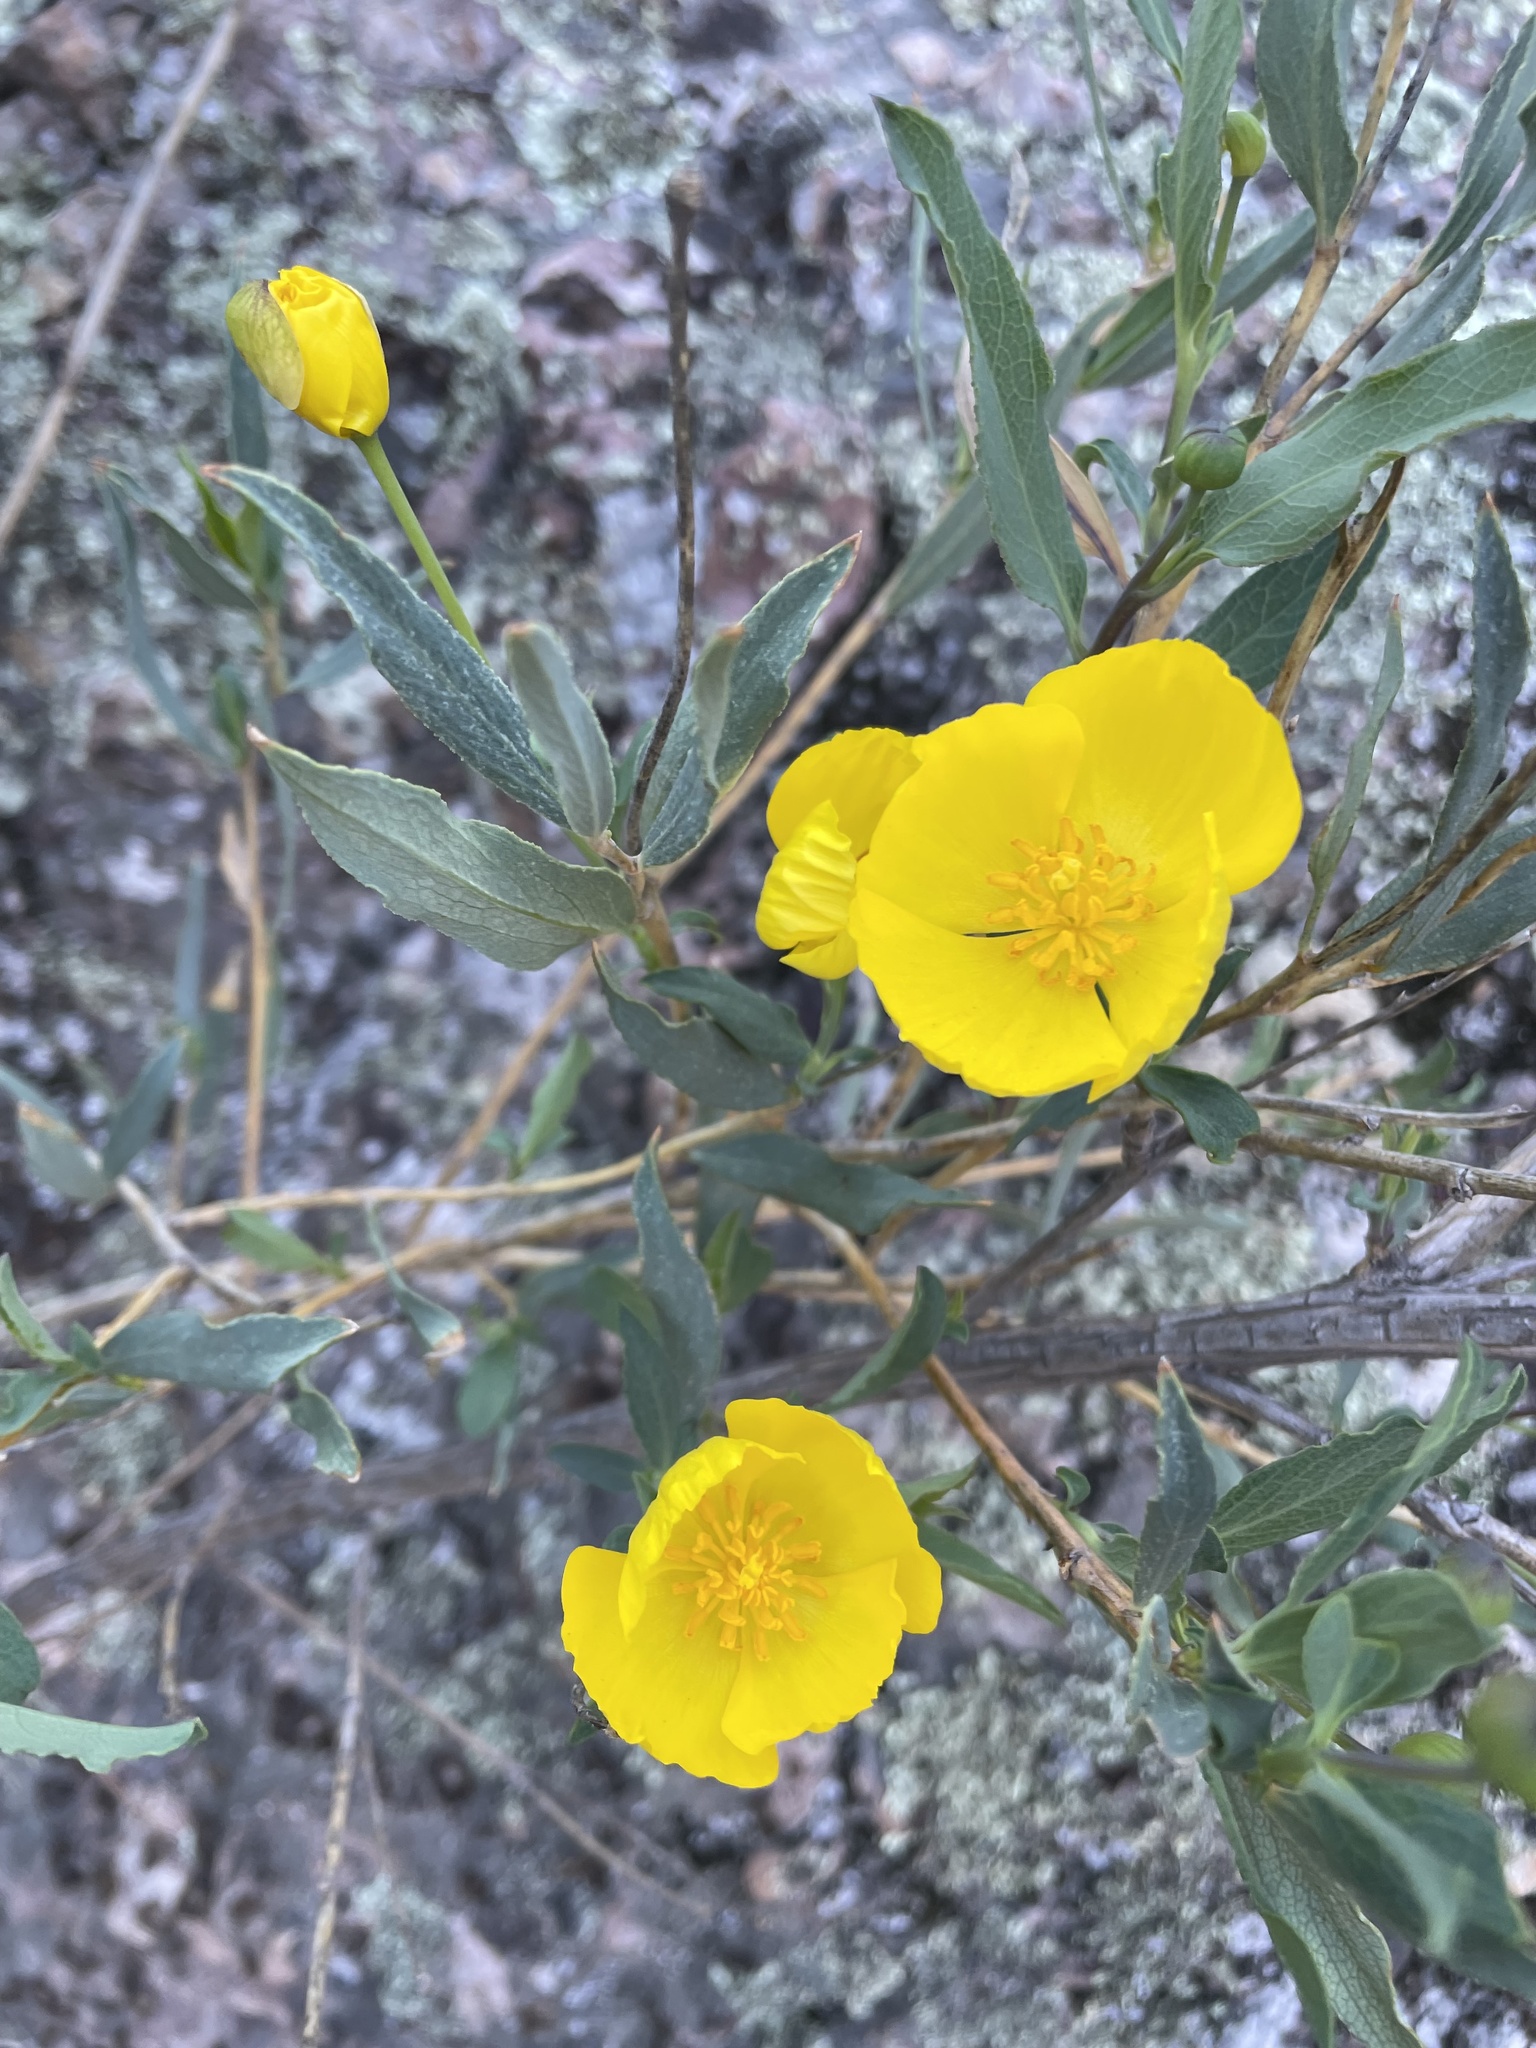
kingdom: Plantae
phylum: Tracheophyta
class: Magnoliopsida
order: Ranunculales
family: Papaveraceae
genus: Dendromecon
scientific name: Dendromecon rigida
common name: Tree poppy
